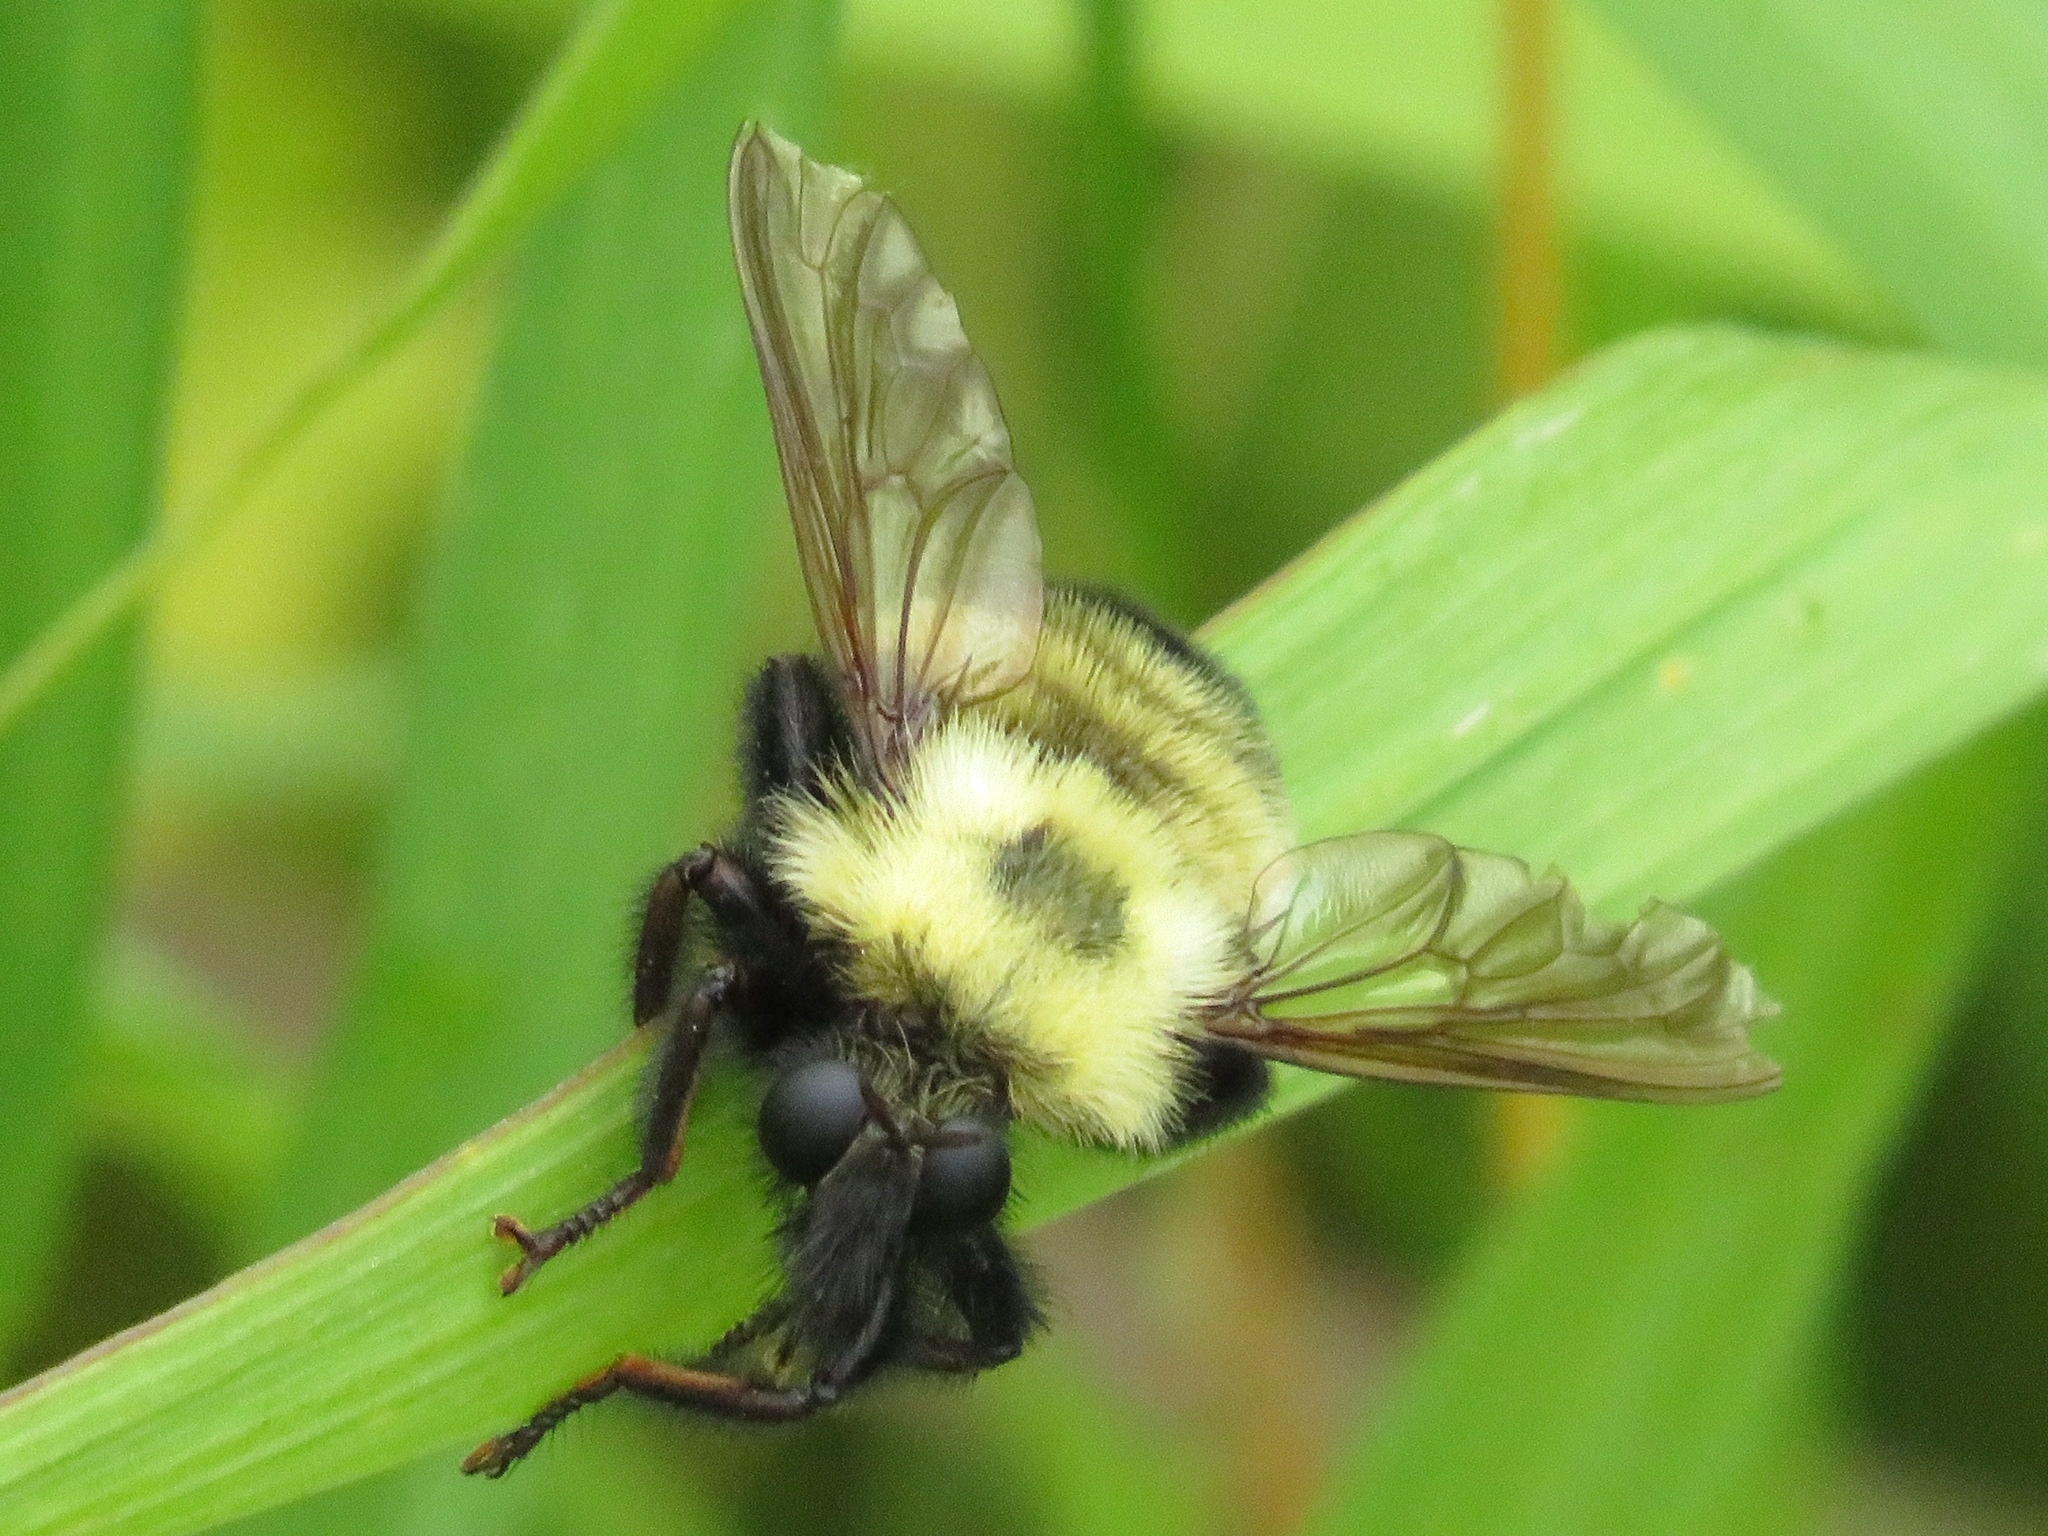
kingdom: Animalia
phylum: Arthropoda
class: Insecta
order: Diptera
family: Asilidae
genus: Laphria
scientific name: Laphria thoracica
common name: Bumble bee mimic robber fly
